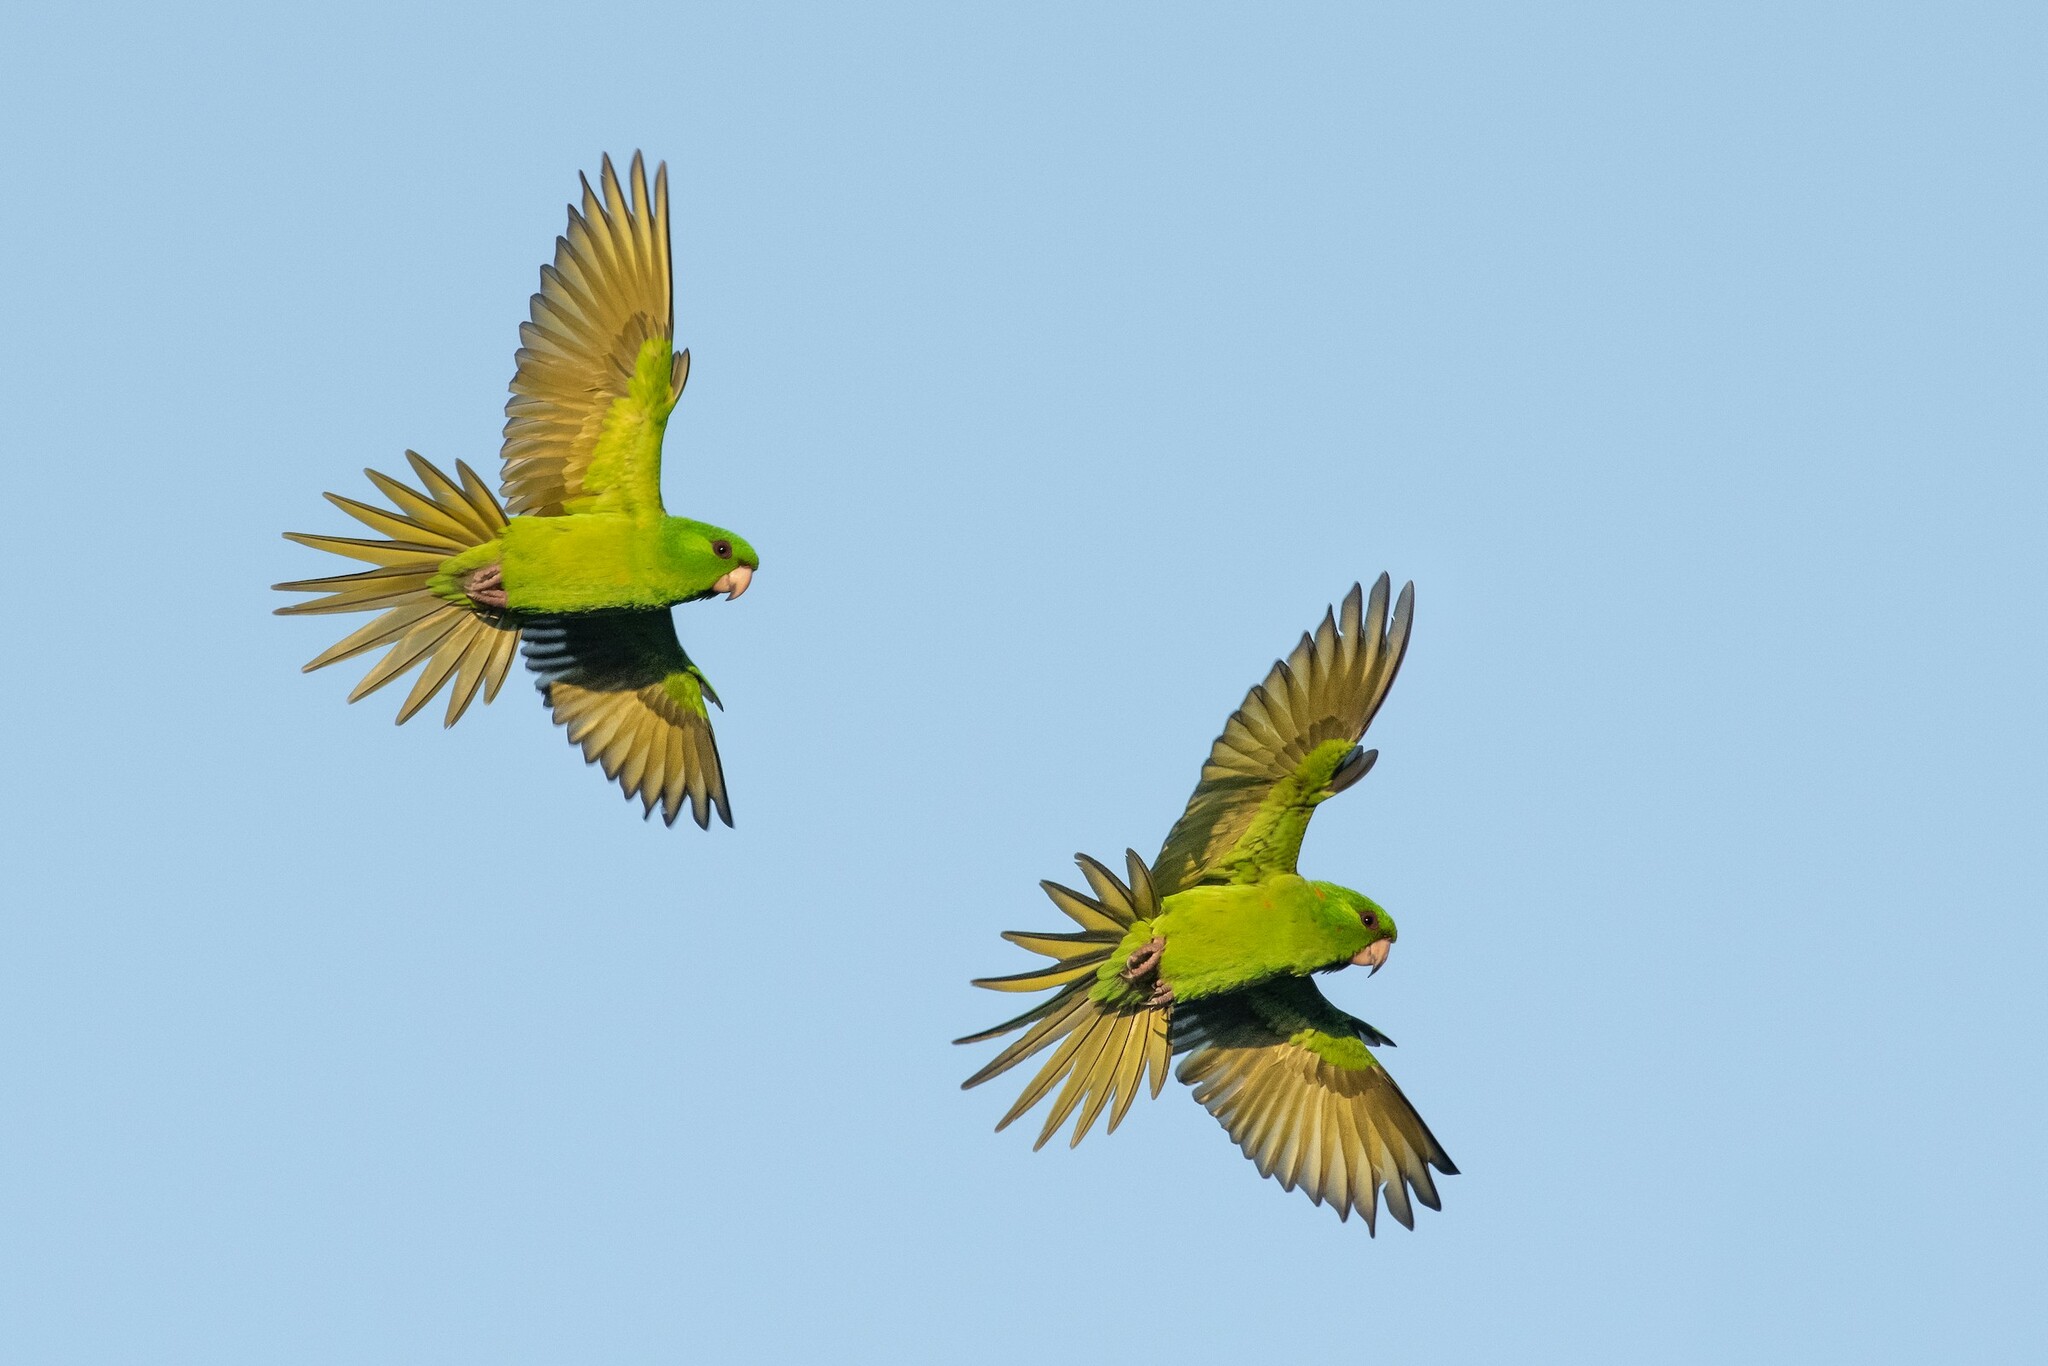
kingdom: Animalia
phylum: Chordata
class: Aves
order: Psittaciformes
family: Psittacidae
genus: Aratinga
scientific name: Aratinga holochlora
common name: Green parakeet
